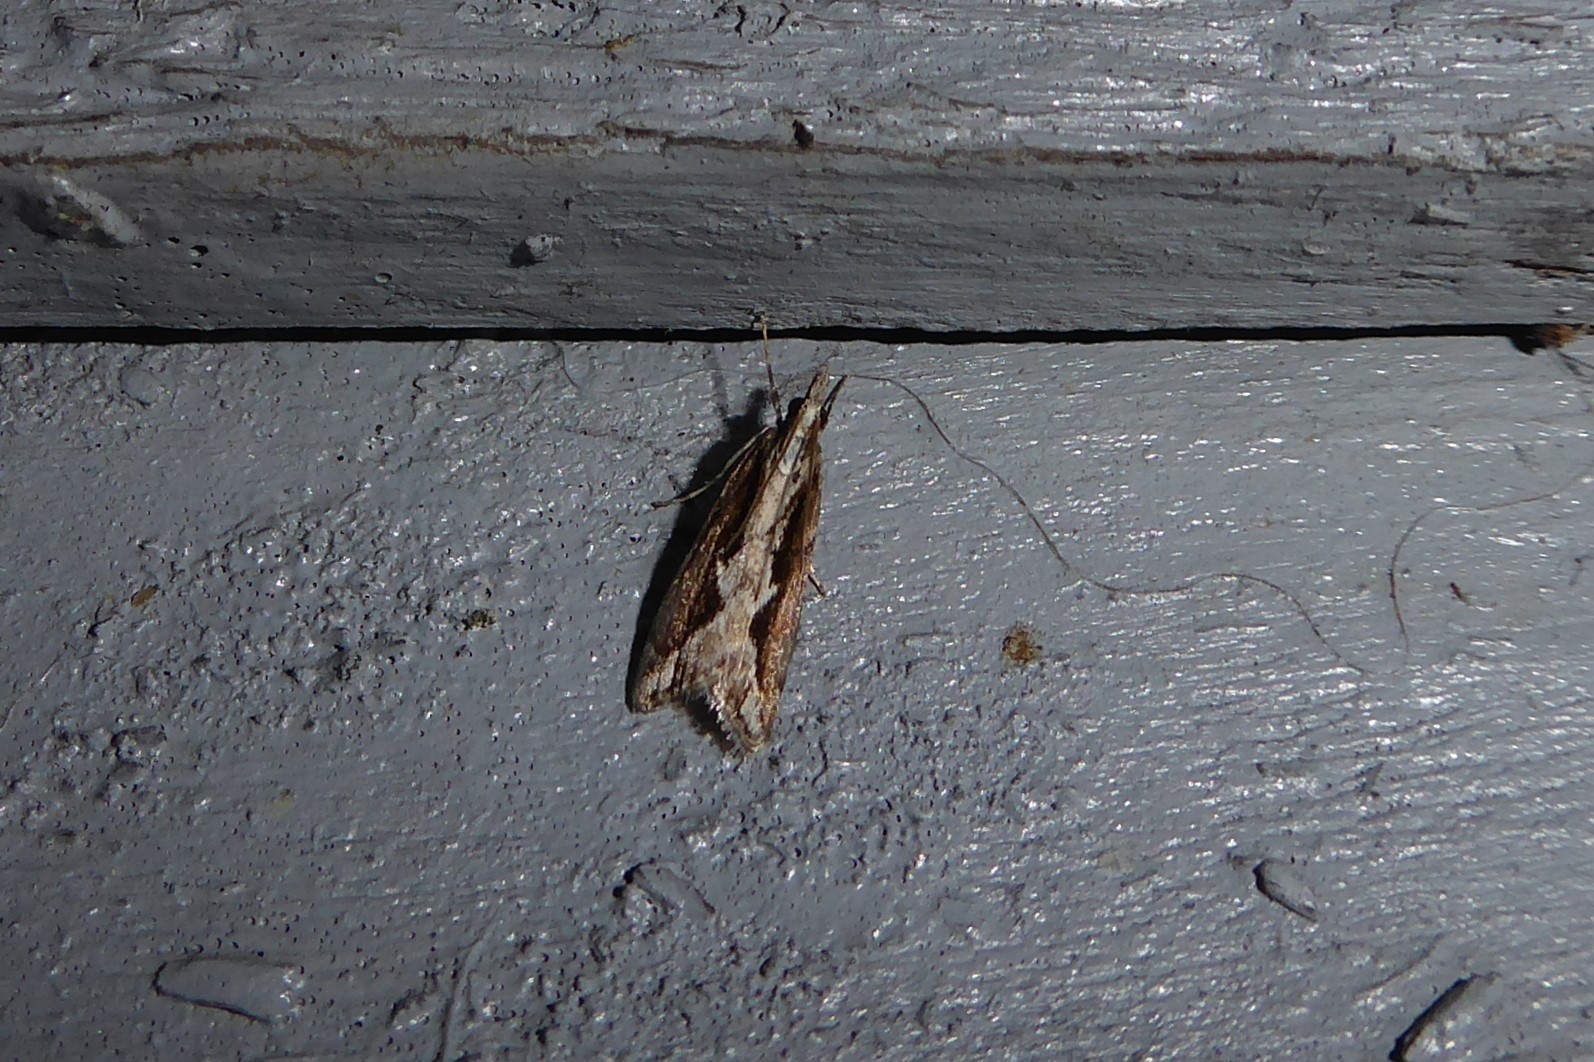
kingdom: Animalia
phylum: Arthropoda
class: Insecta
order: Lepidoptera
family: Crambidae
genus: Eudonia
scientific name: Eudonia steropaea
